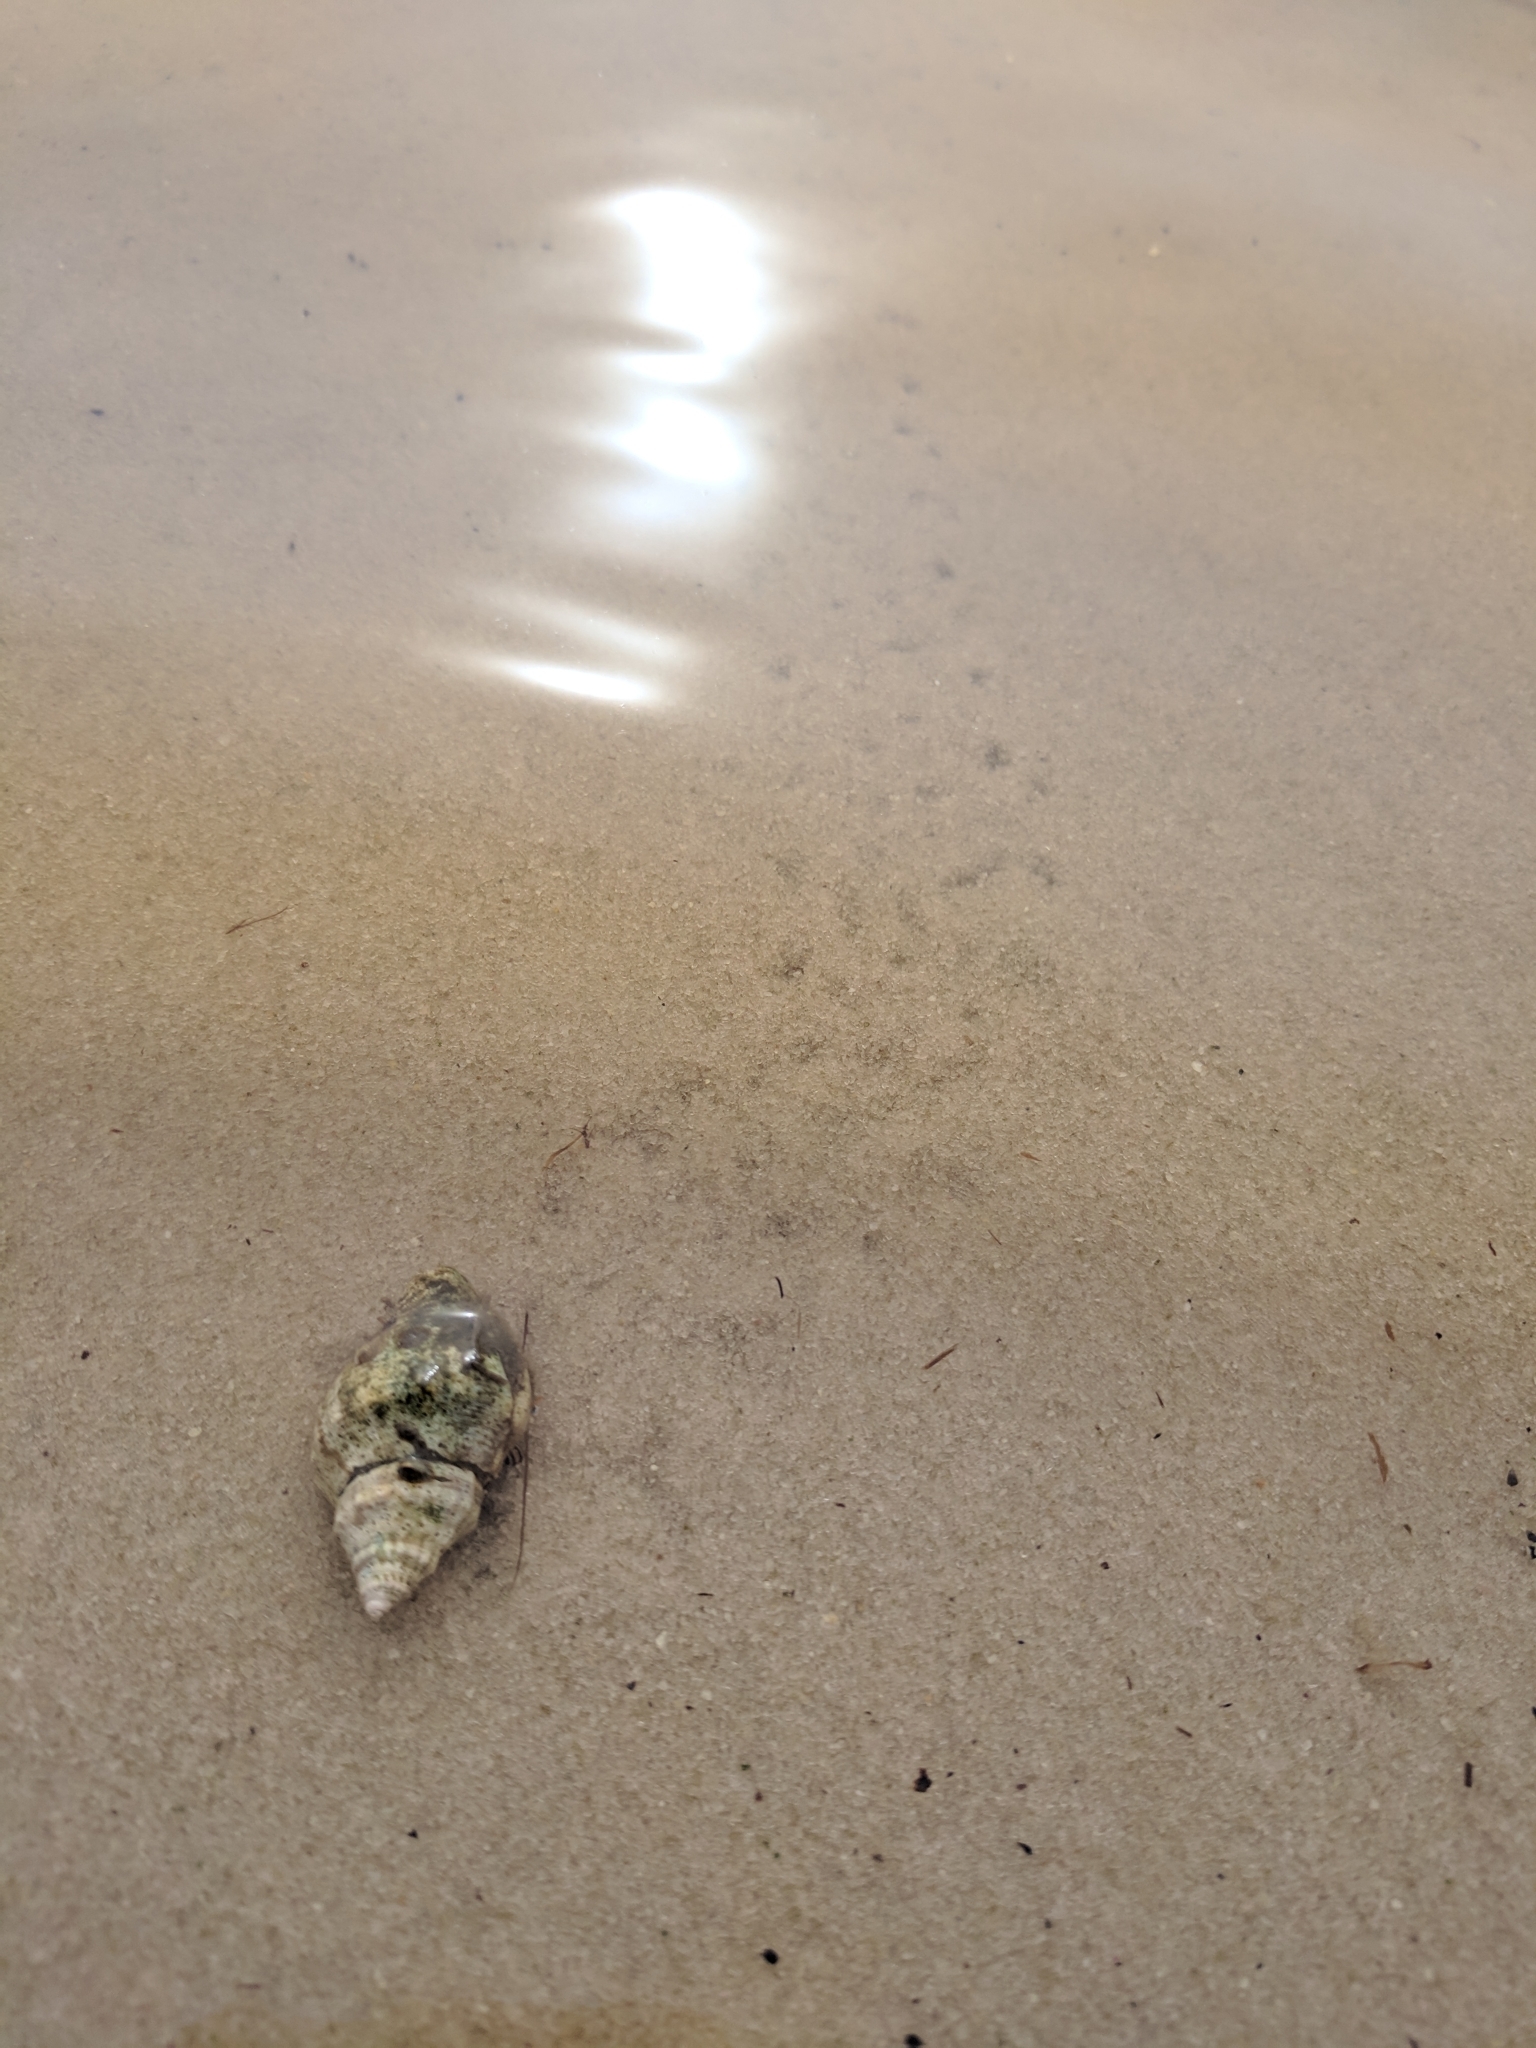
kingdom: Animalia
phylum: Arthropoda
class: Malacostraca
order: Decapoda
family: Diogenidae
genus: Clibanarius
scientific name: Clibanarius vittatus
